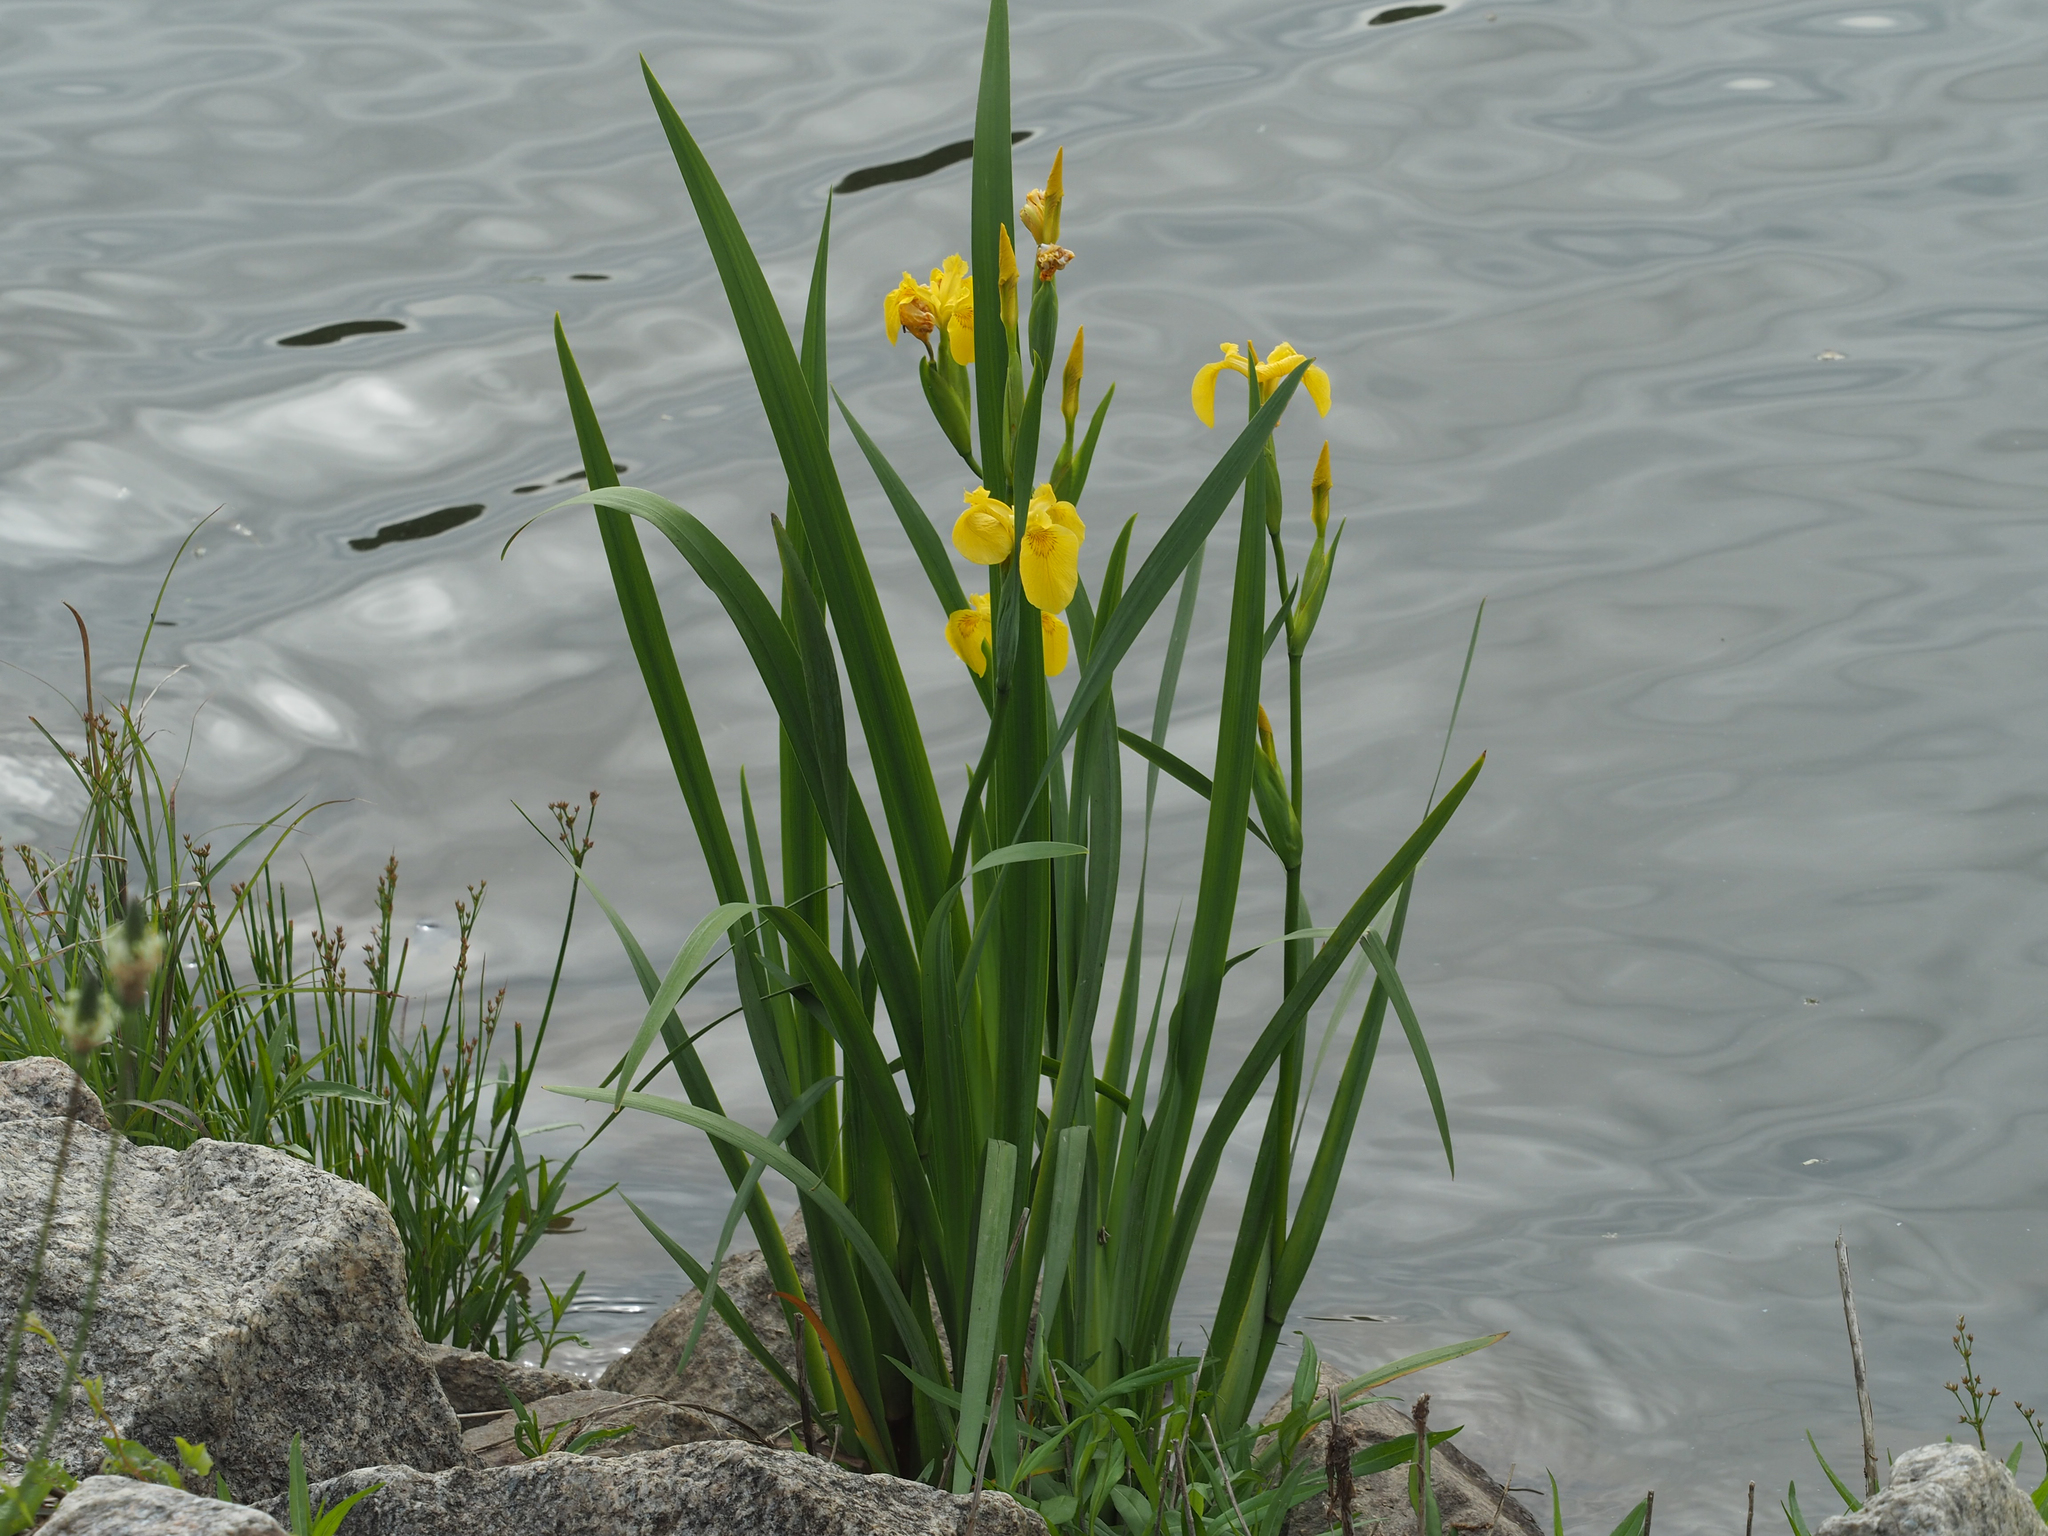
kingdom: Plantae
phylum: Tracheophyta
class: Liliopsida
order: Asparagales
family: Iridaceae
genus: Iris
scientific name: Iris pseudacorus
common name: Yellow flag
